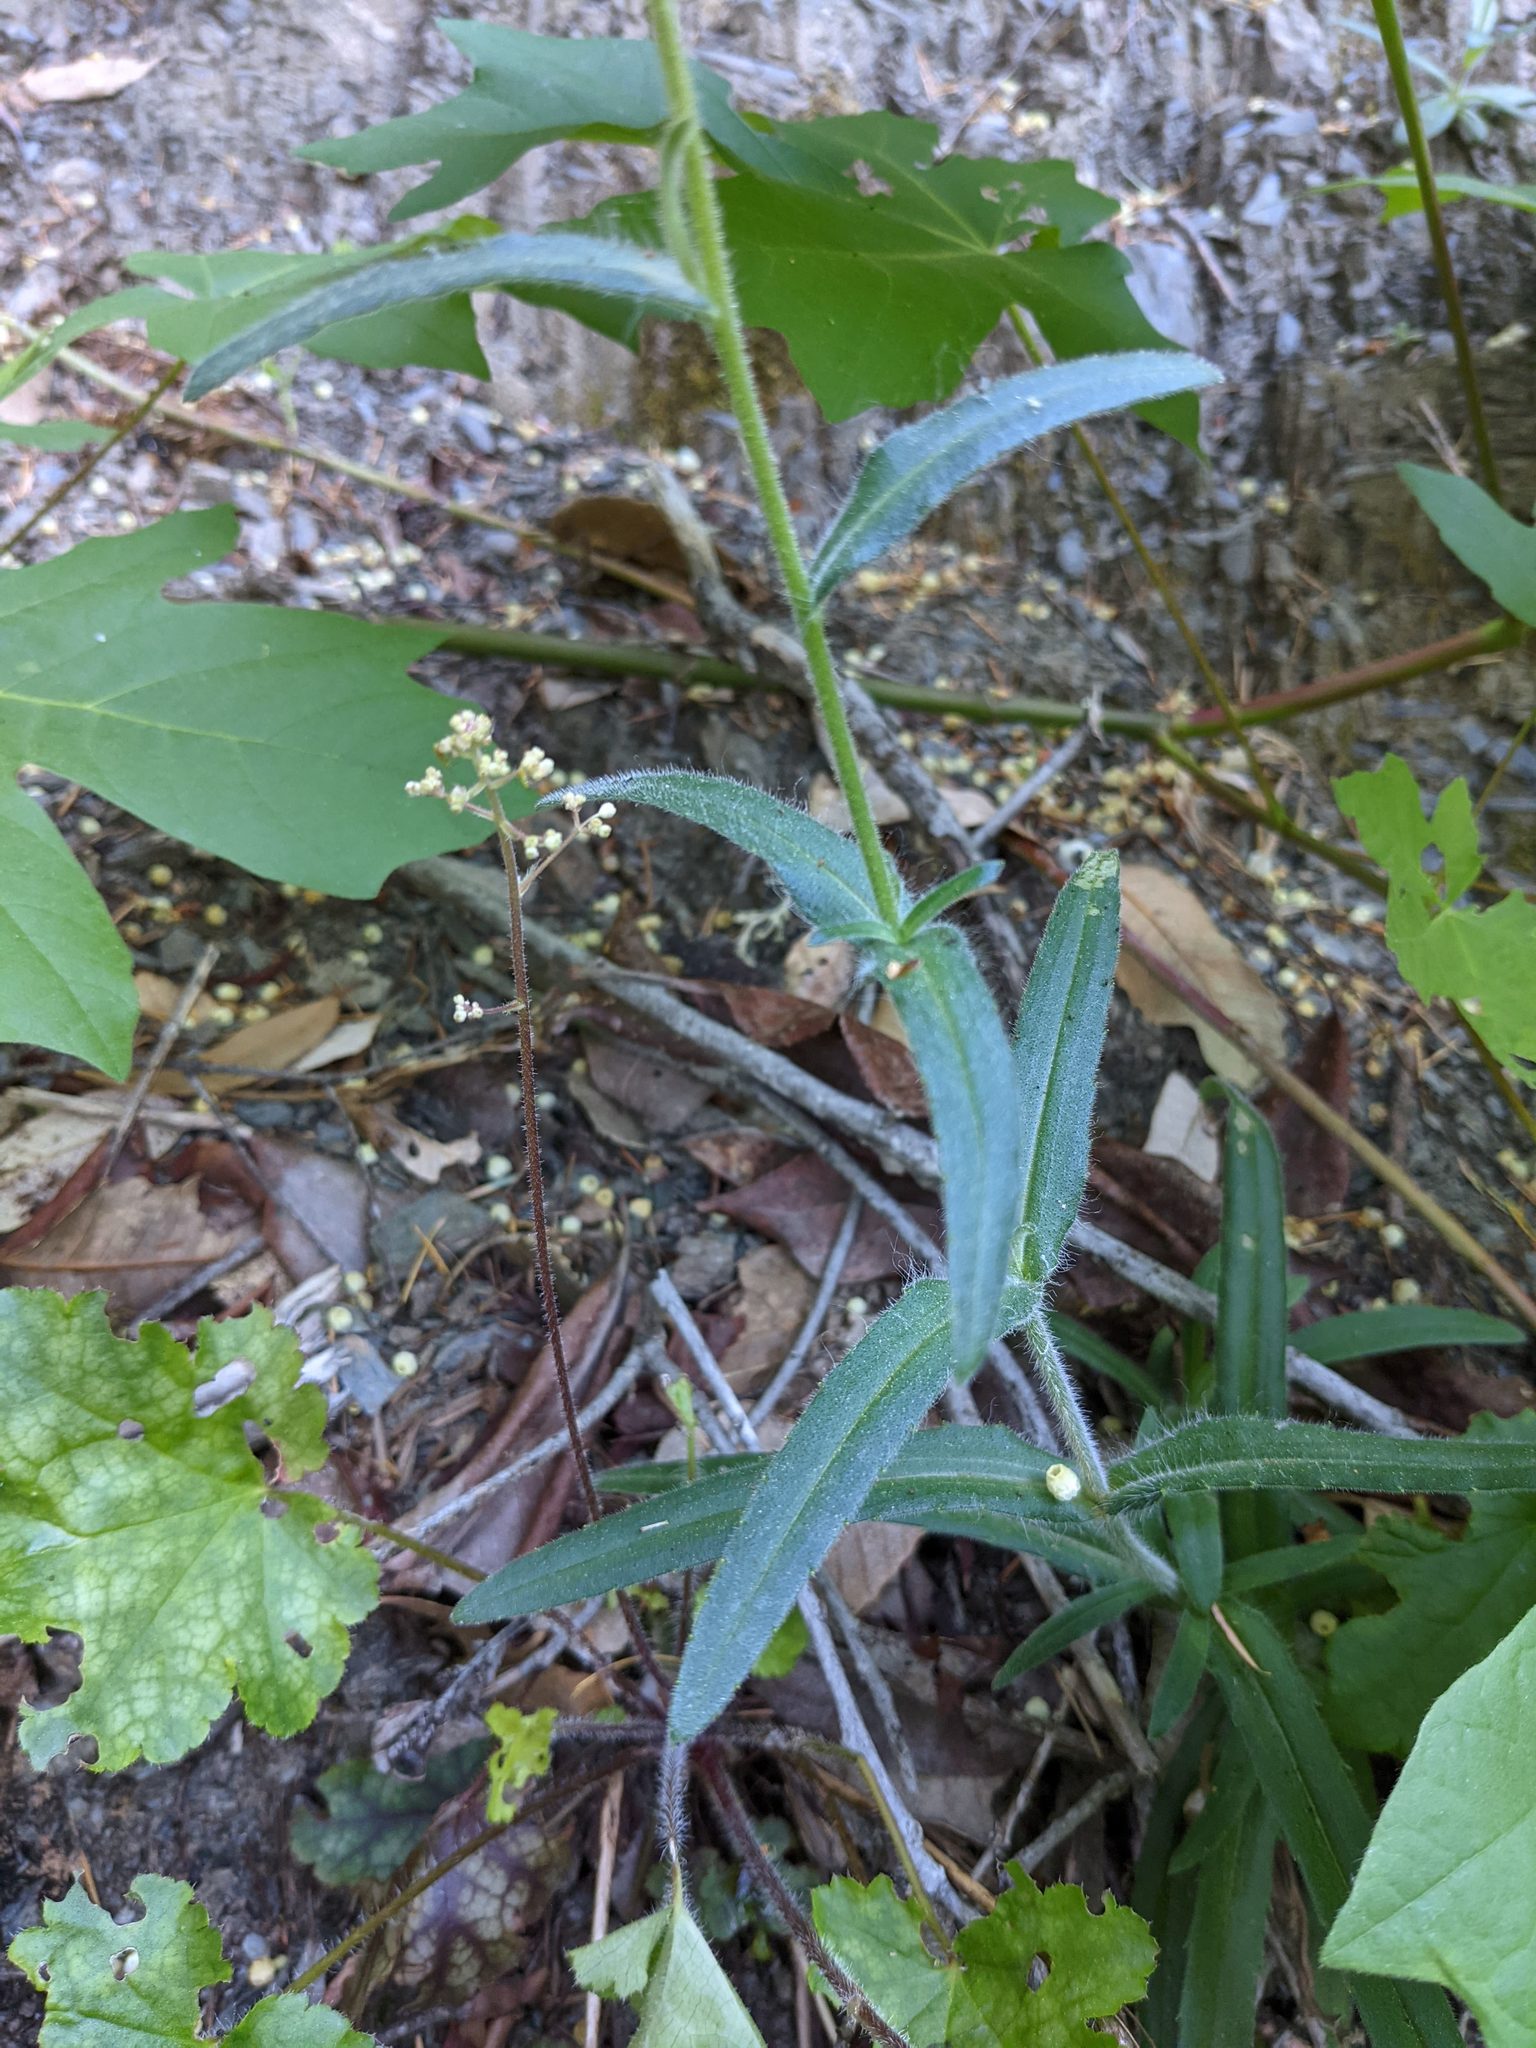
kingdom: Plantae
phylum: Tracheophyta
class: Magnoliopsida
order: Asterales
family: Asteraceae
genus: Anisocarpus
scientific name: Anisocarpus madioides
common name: Woodland madia
